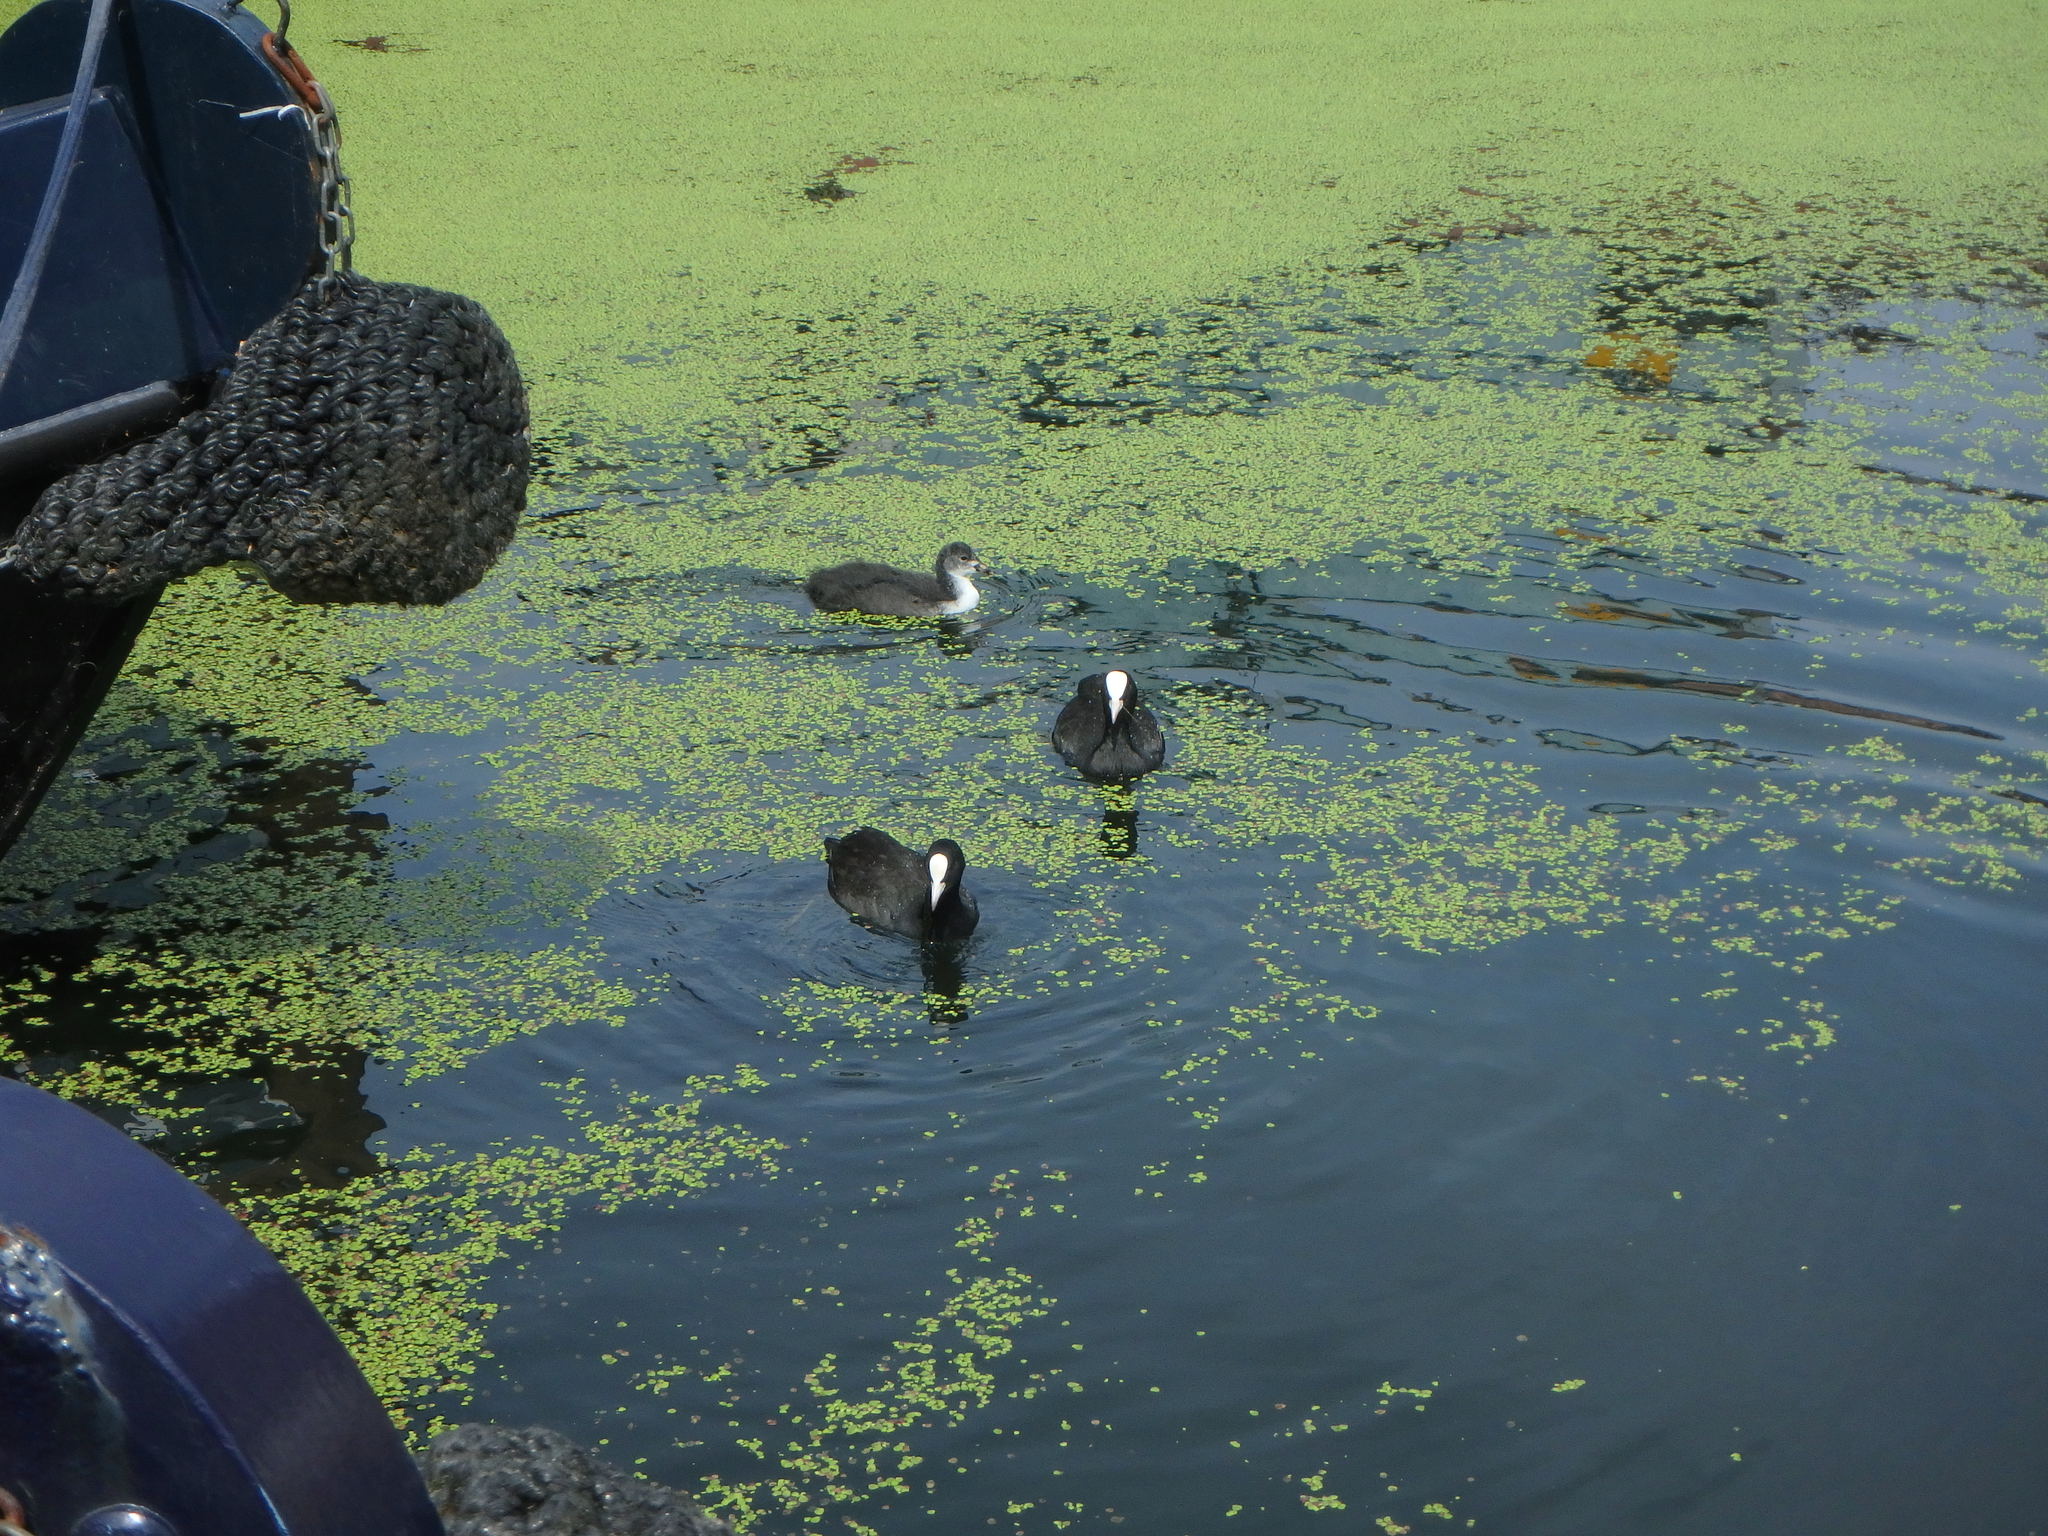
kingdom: Animalia
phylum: Chordata
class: Aves
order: Gruiformes
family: Rallidae
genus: Fulica
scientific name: Fulica atra
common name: Eurasian coot
